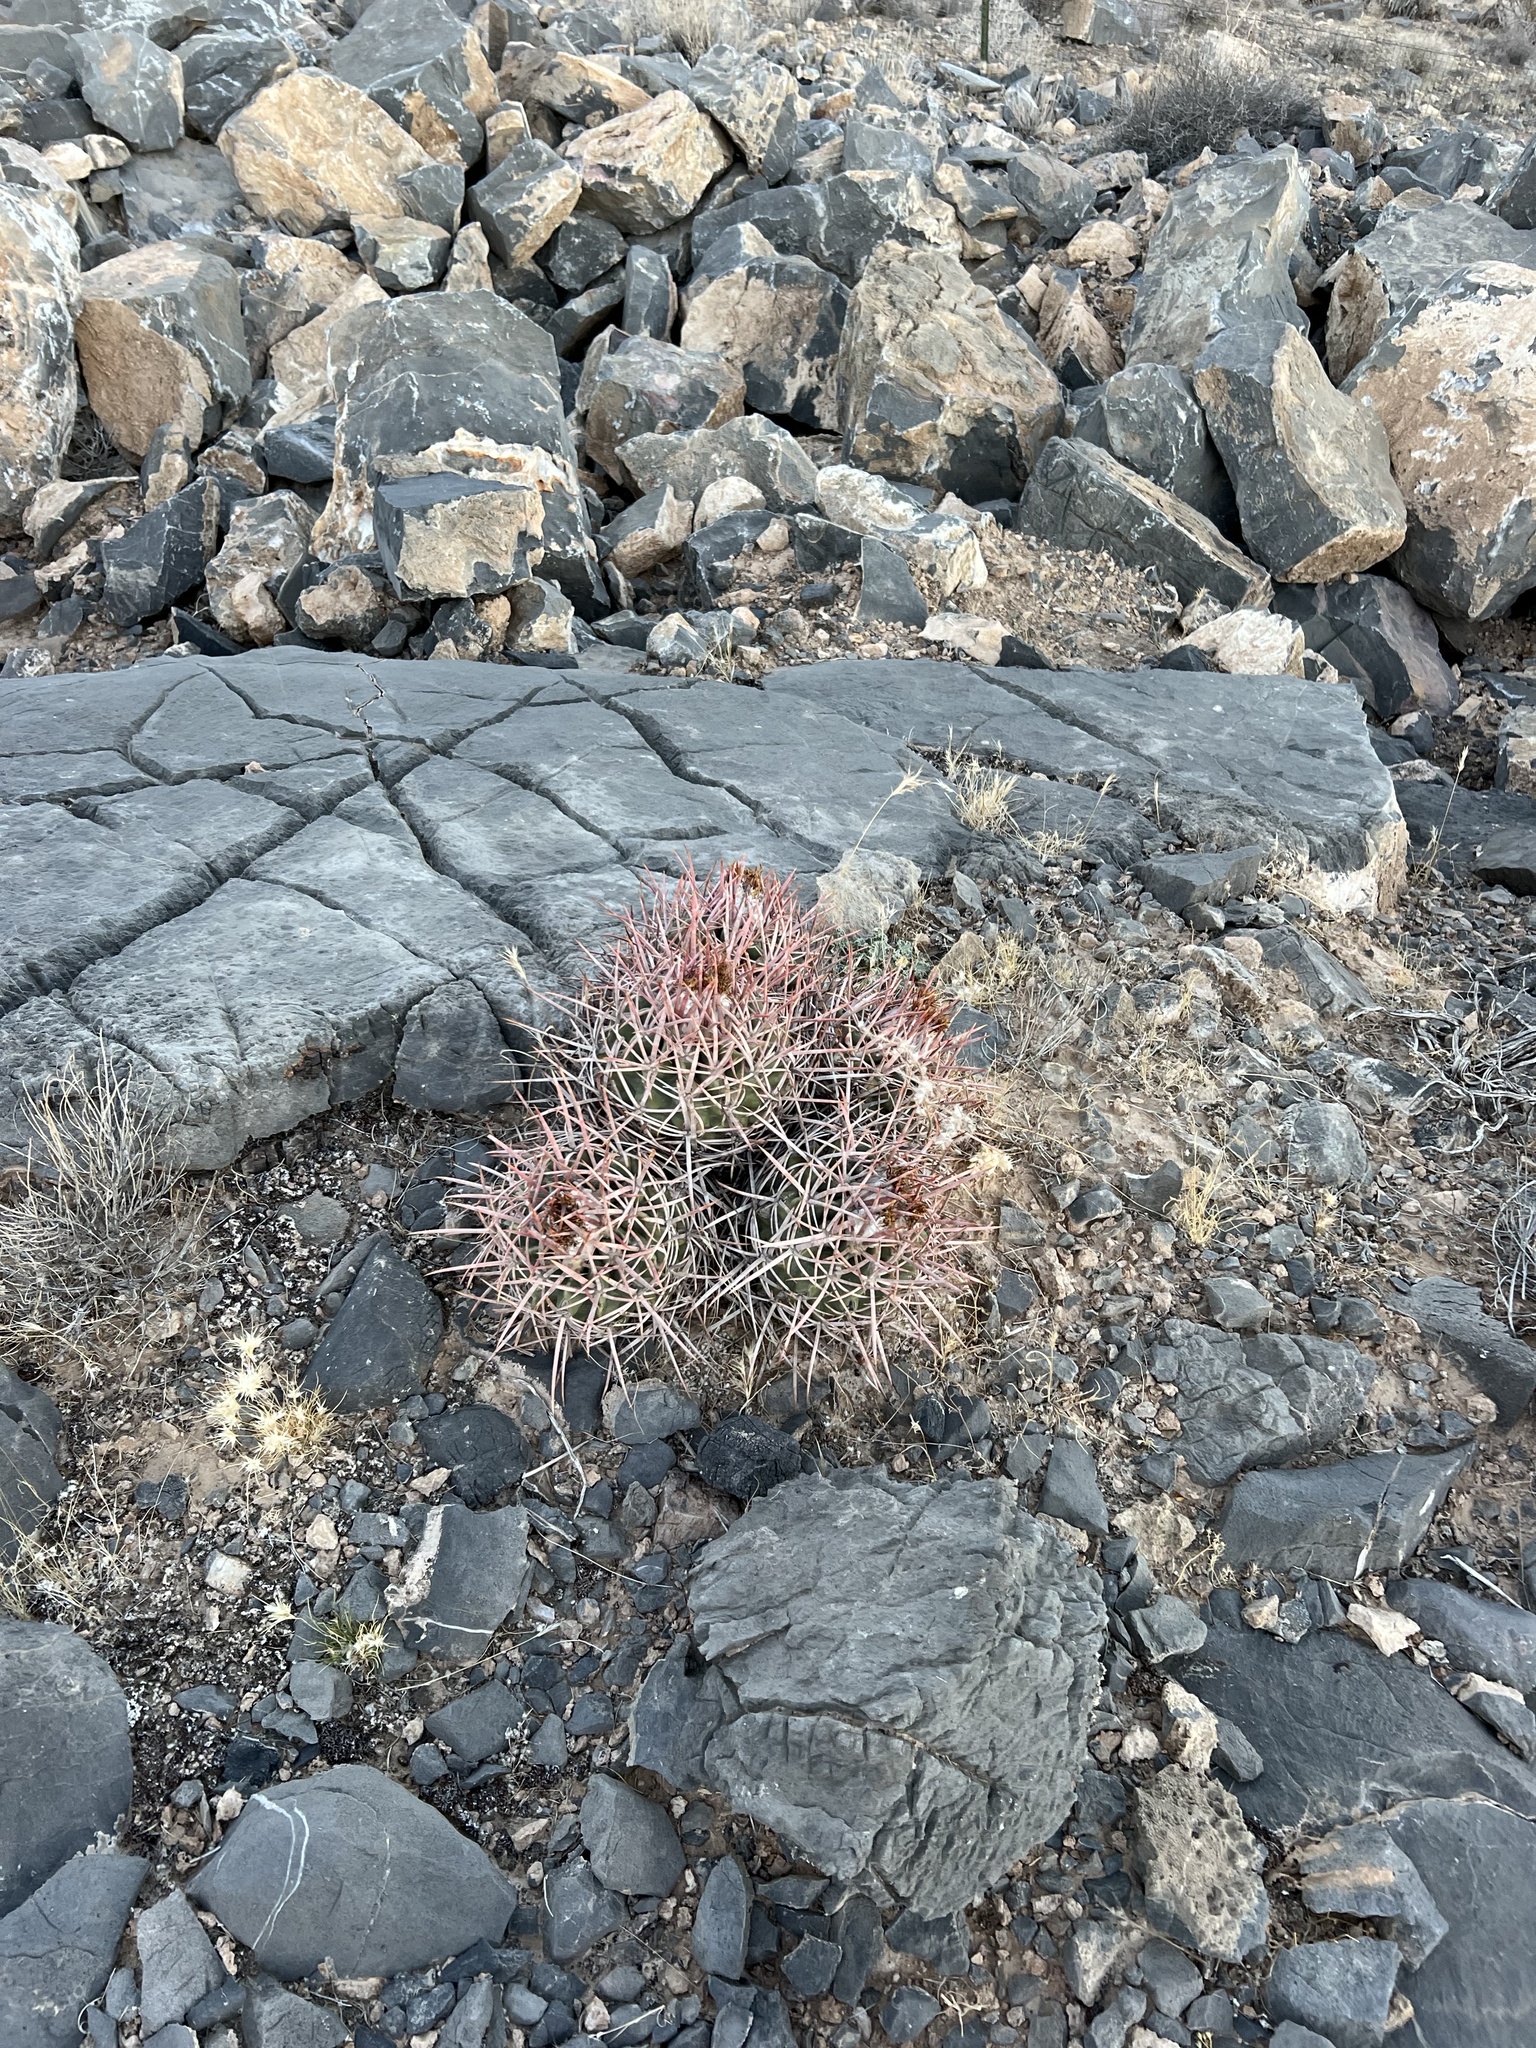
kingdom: Plantae
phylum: Tracheophyta
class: Magnoliopsida
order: Caryophyllales
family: Cactaceae
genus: Echinocactus
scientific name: Echinocactus polycephalus
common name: Cottontop cactus
